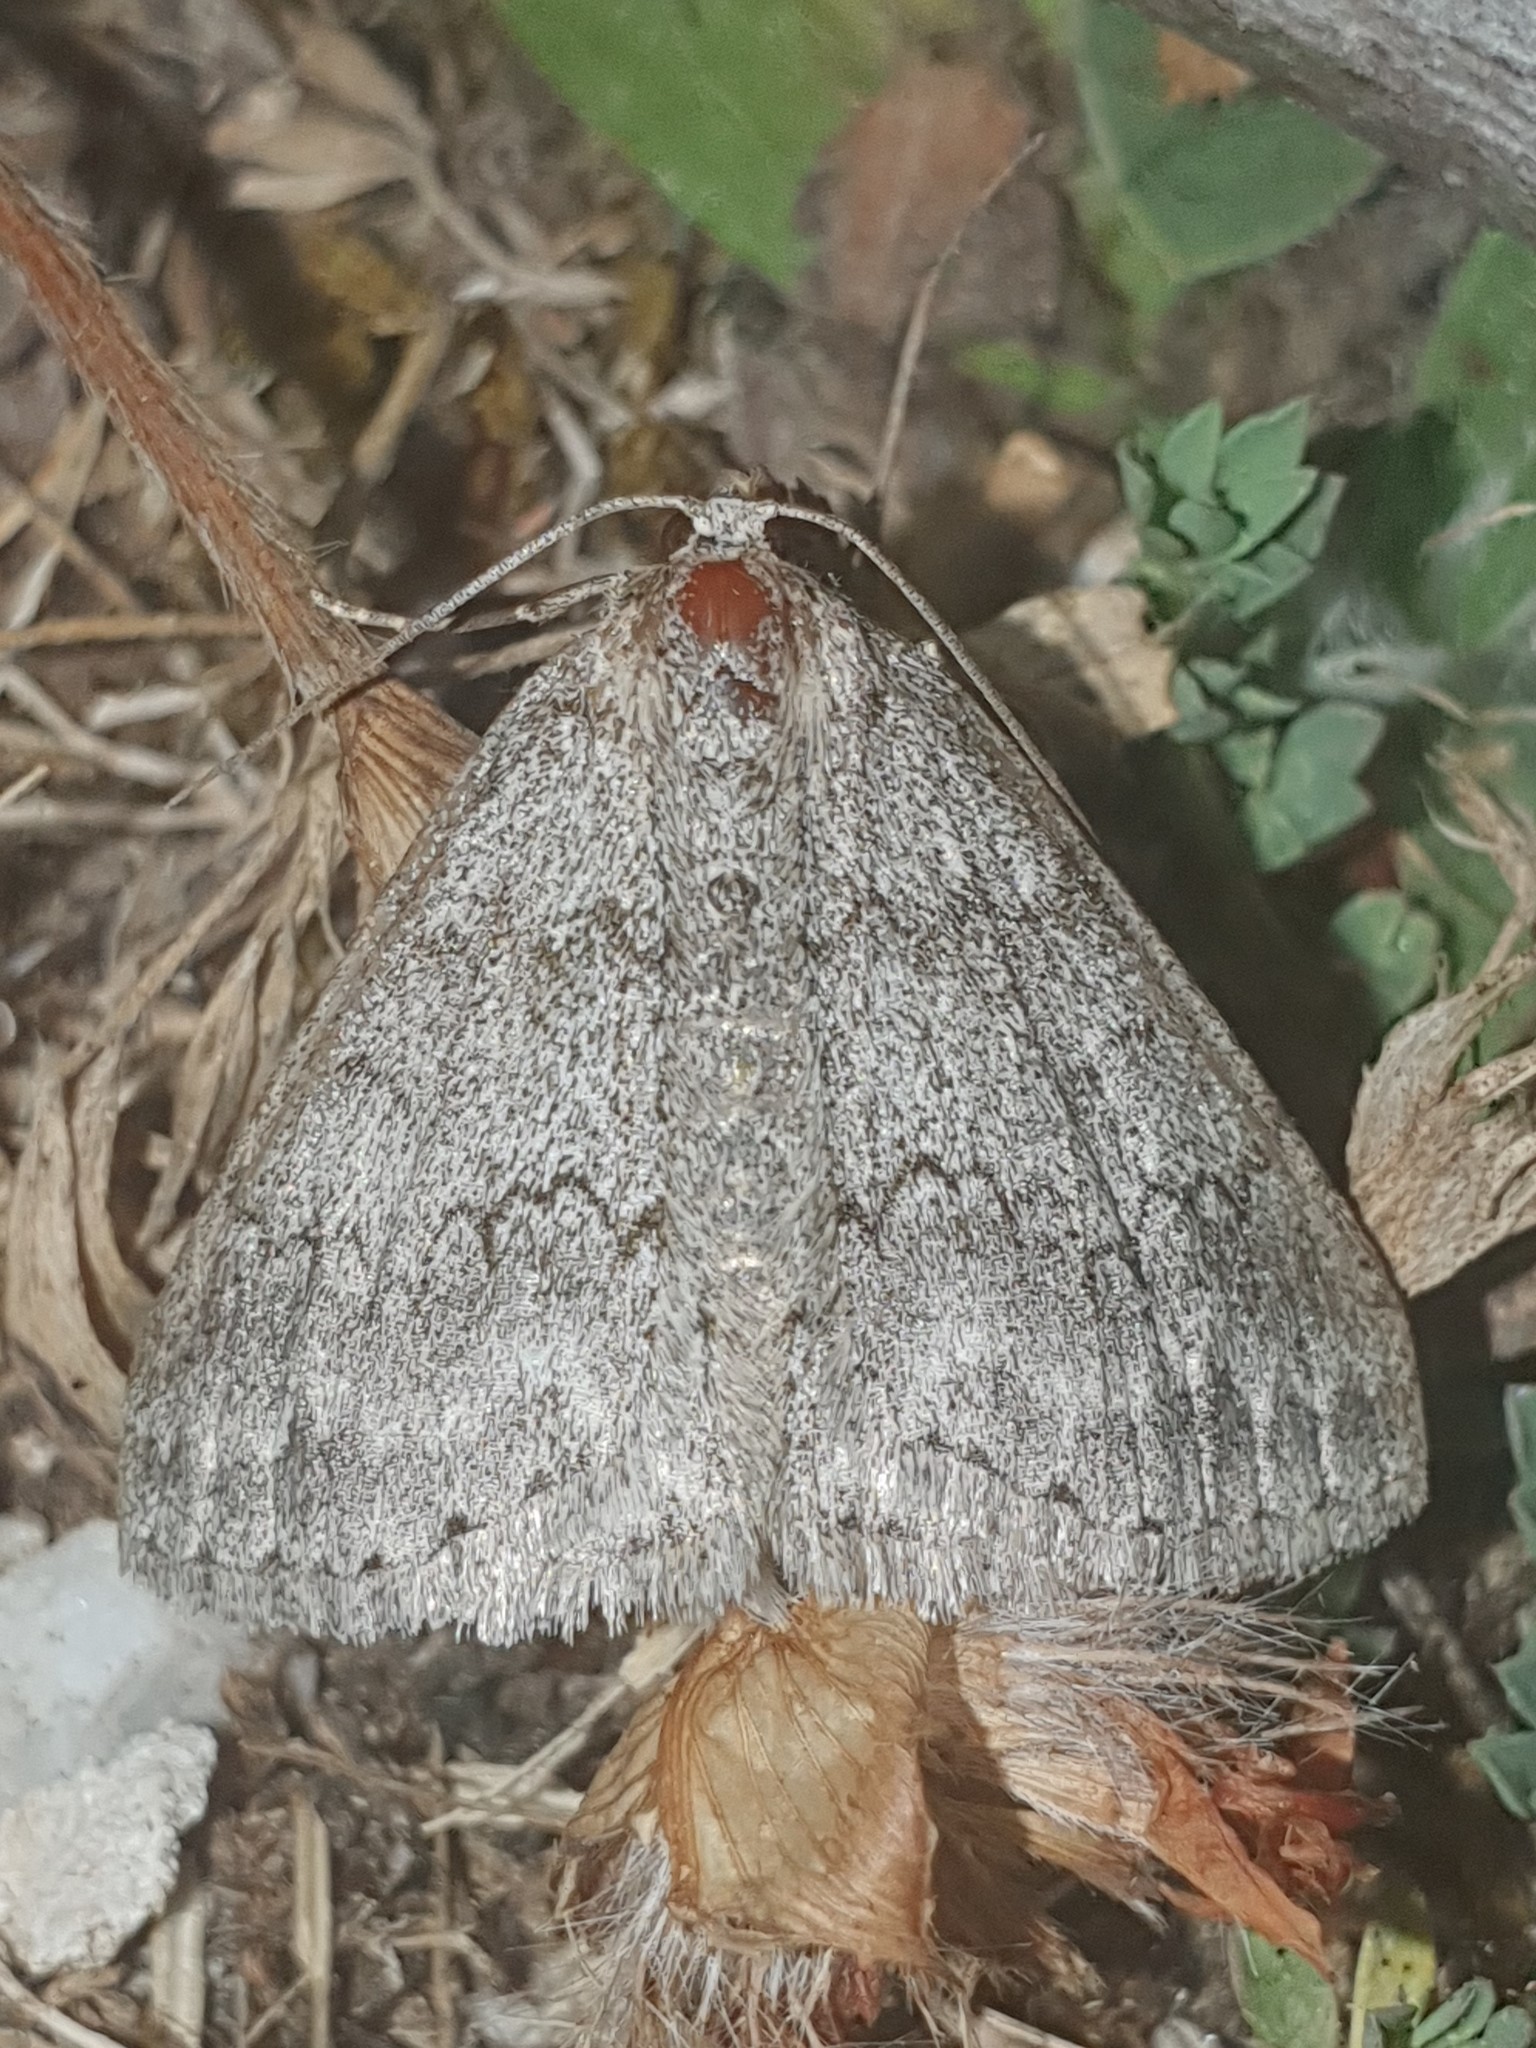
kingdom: Animalia
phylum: Arthropoda
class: Insecta
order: Lepidoptera
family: Geometridae
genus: Pseudoterpna
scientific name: Pseudoterpna coronillaria
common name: Jersey emerald
